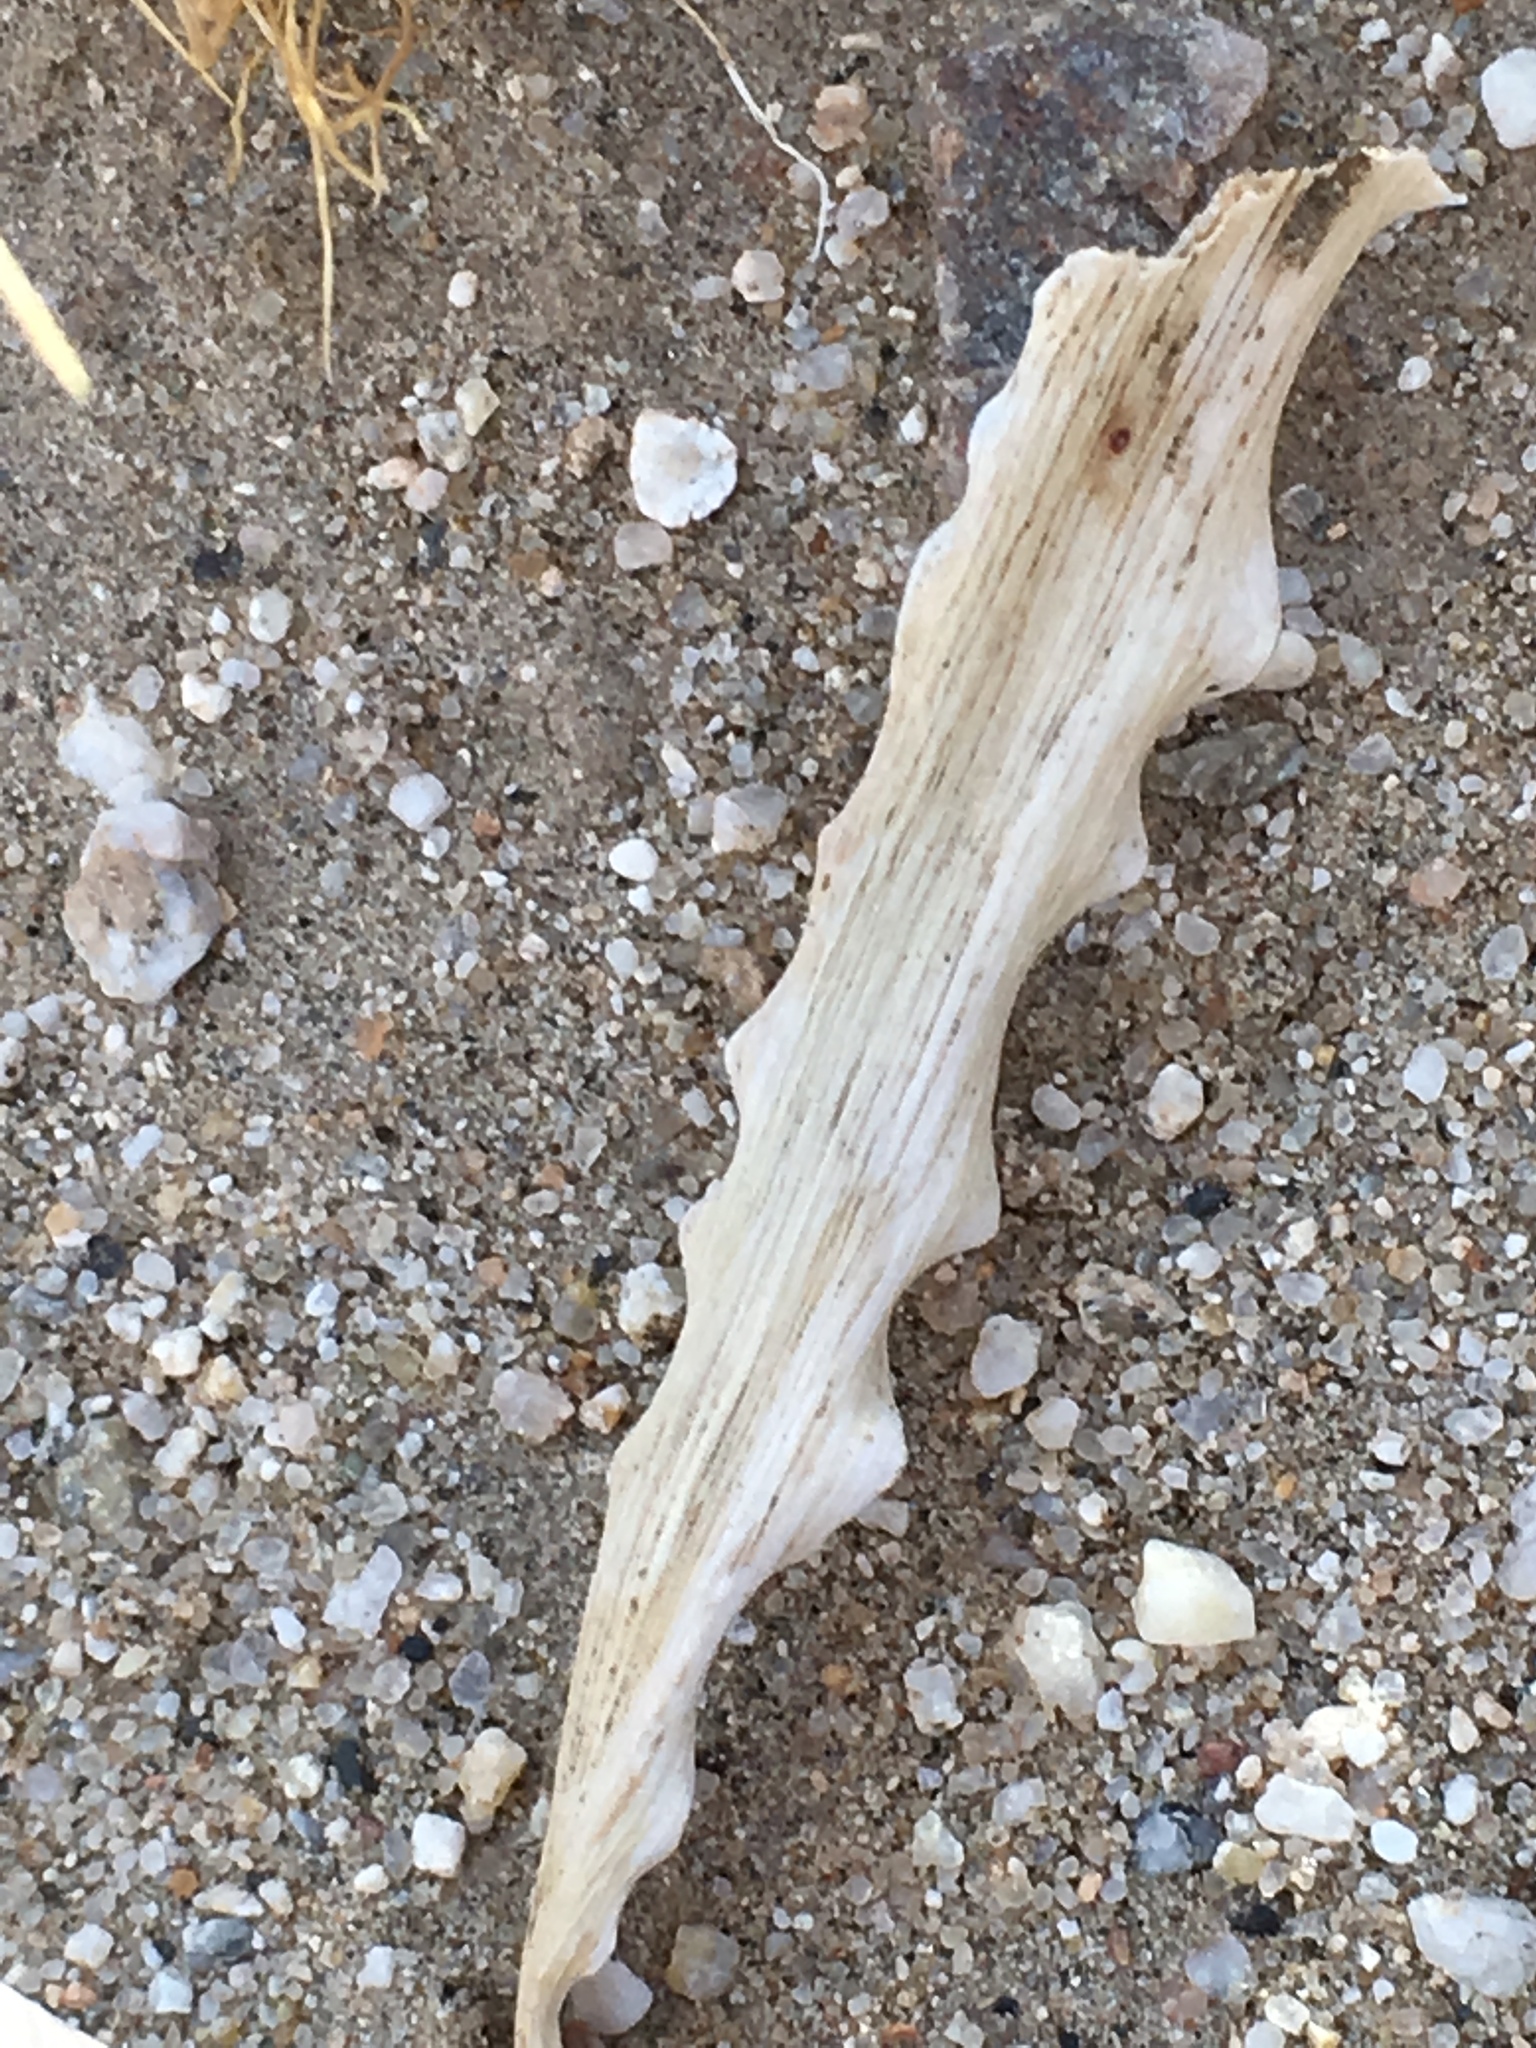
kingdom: Plantae
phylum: Tracheophyta
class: Liliopsida
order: Asparagales
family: Asparagaceae
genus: Hesperocallis
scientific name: Hesperocallis undulata
